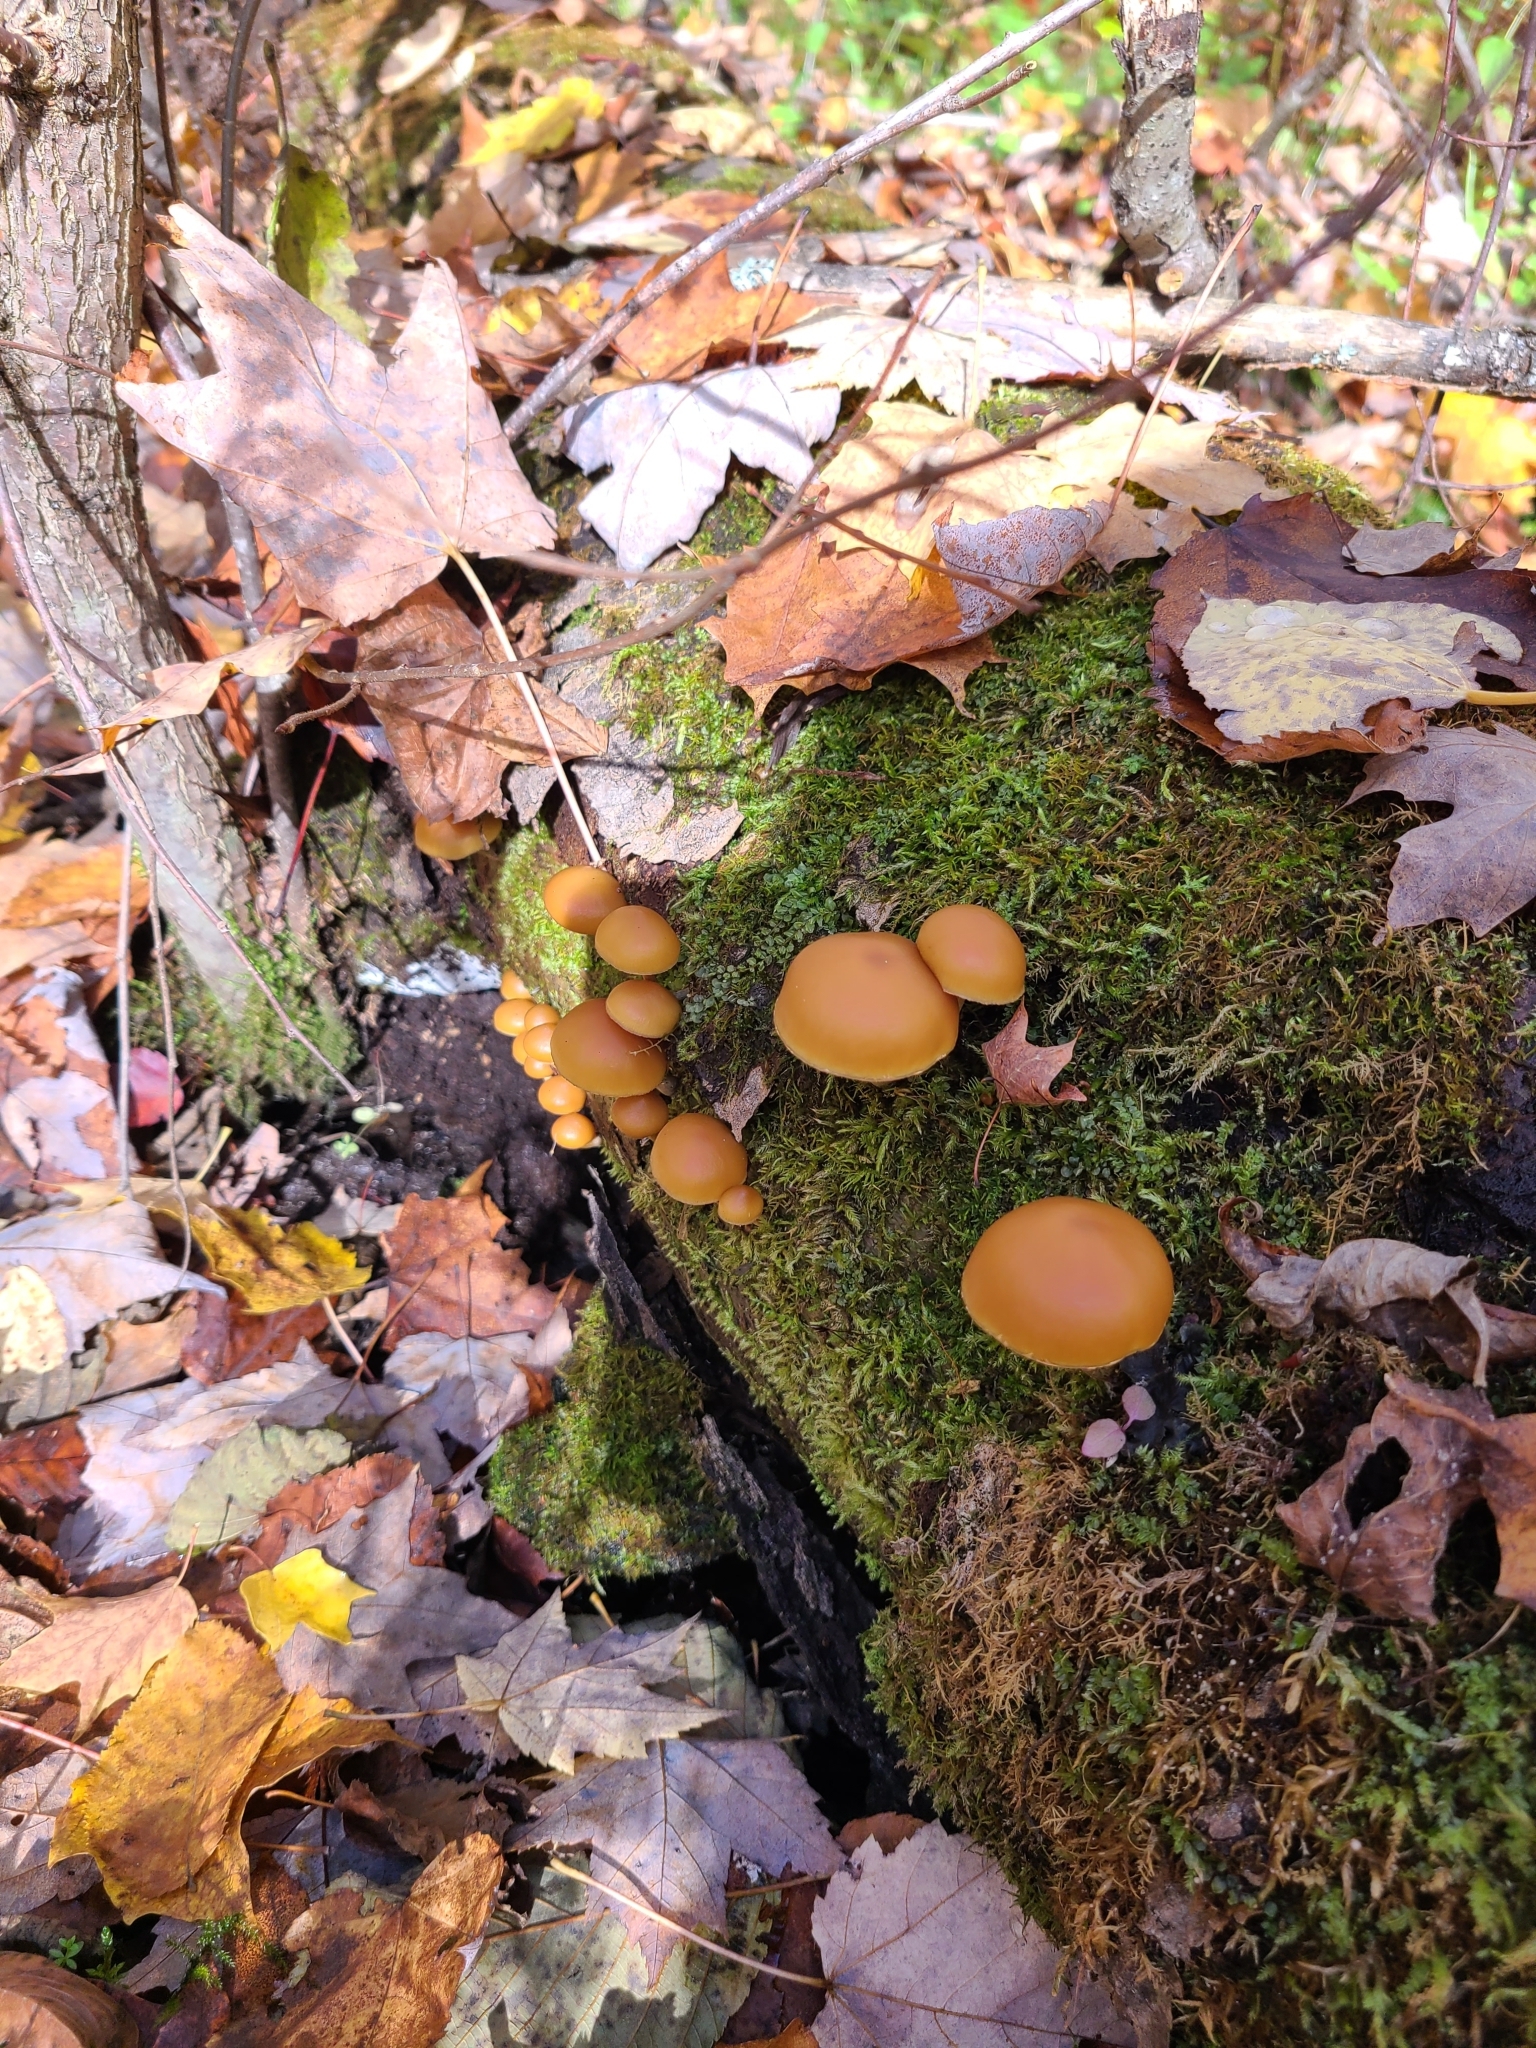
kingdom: Fungi
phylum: Basidiomycota
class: Agaricomycetes
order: Agaricales
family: Hymenogastraceae
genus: Galerina
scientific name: Galerina marginata
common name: Funeral bell
